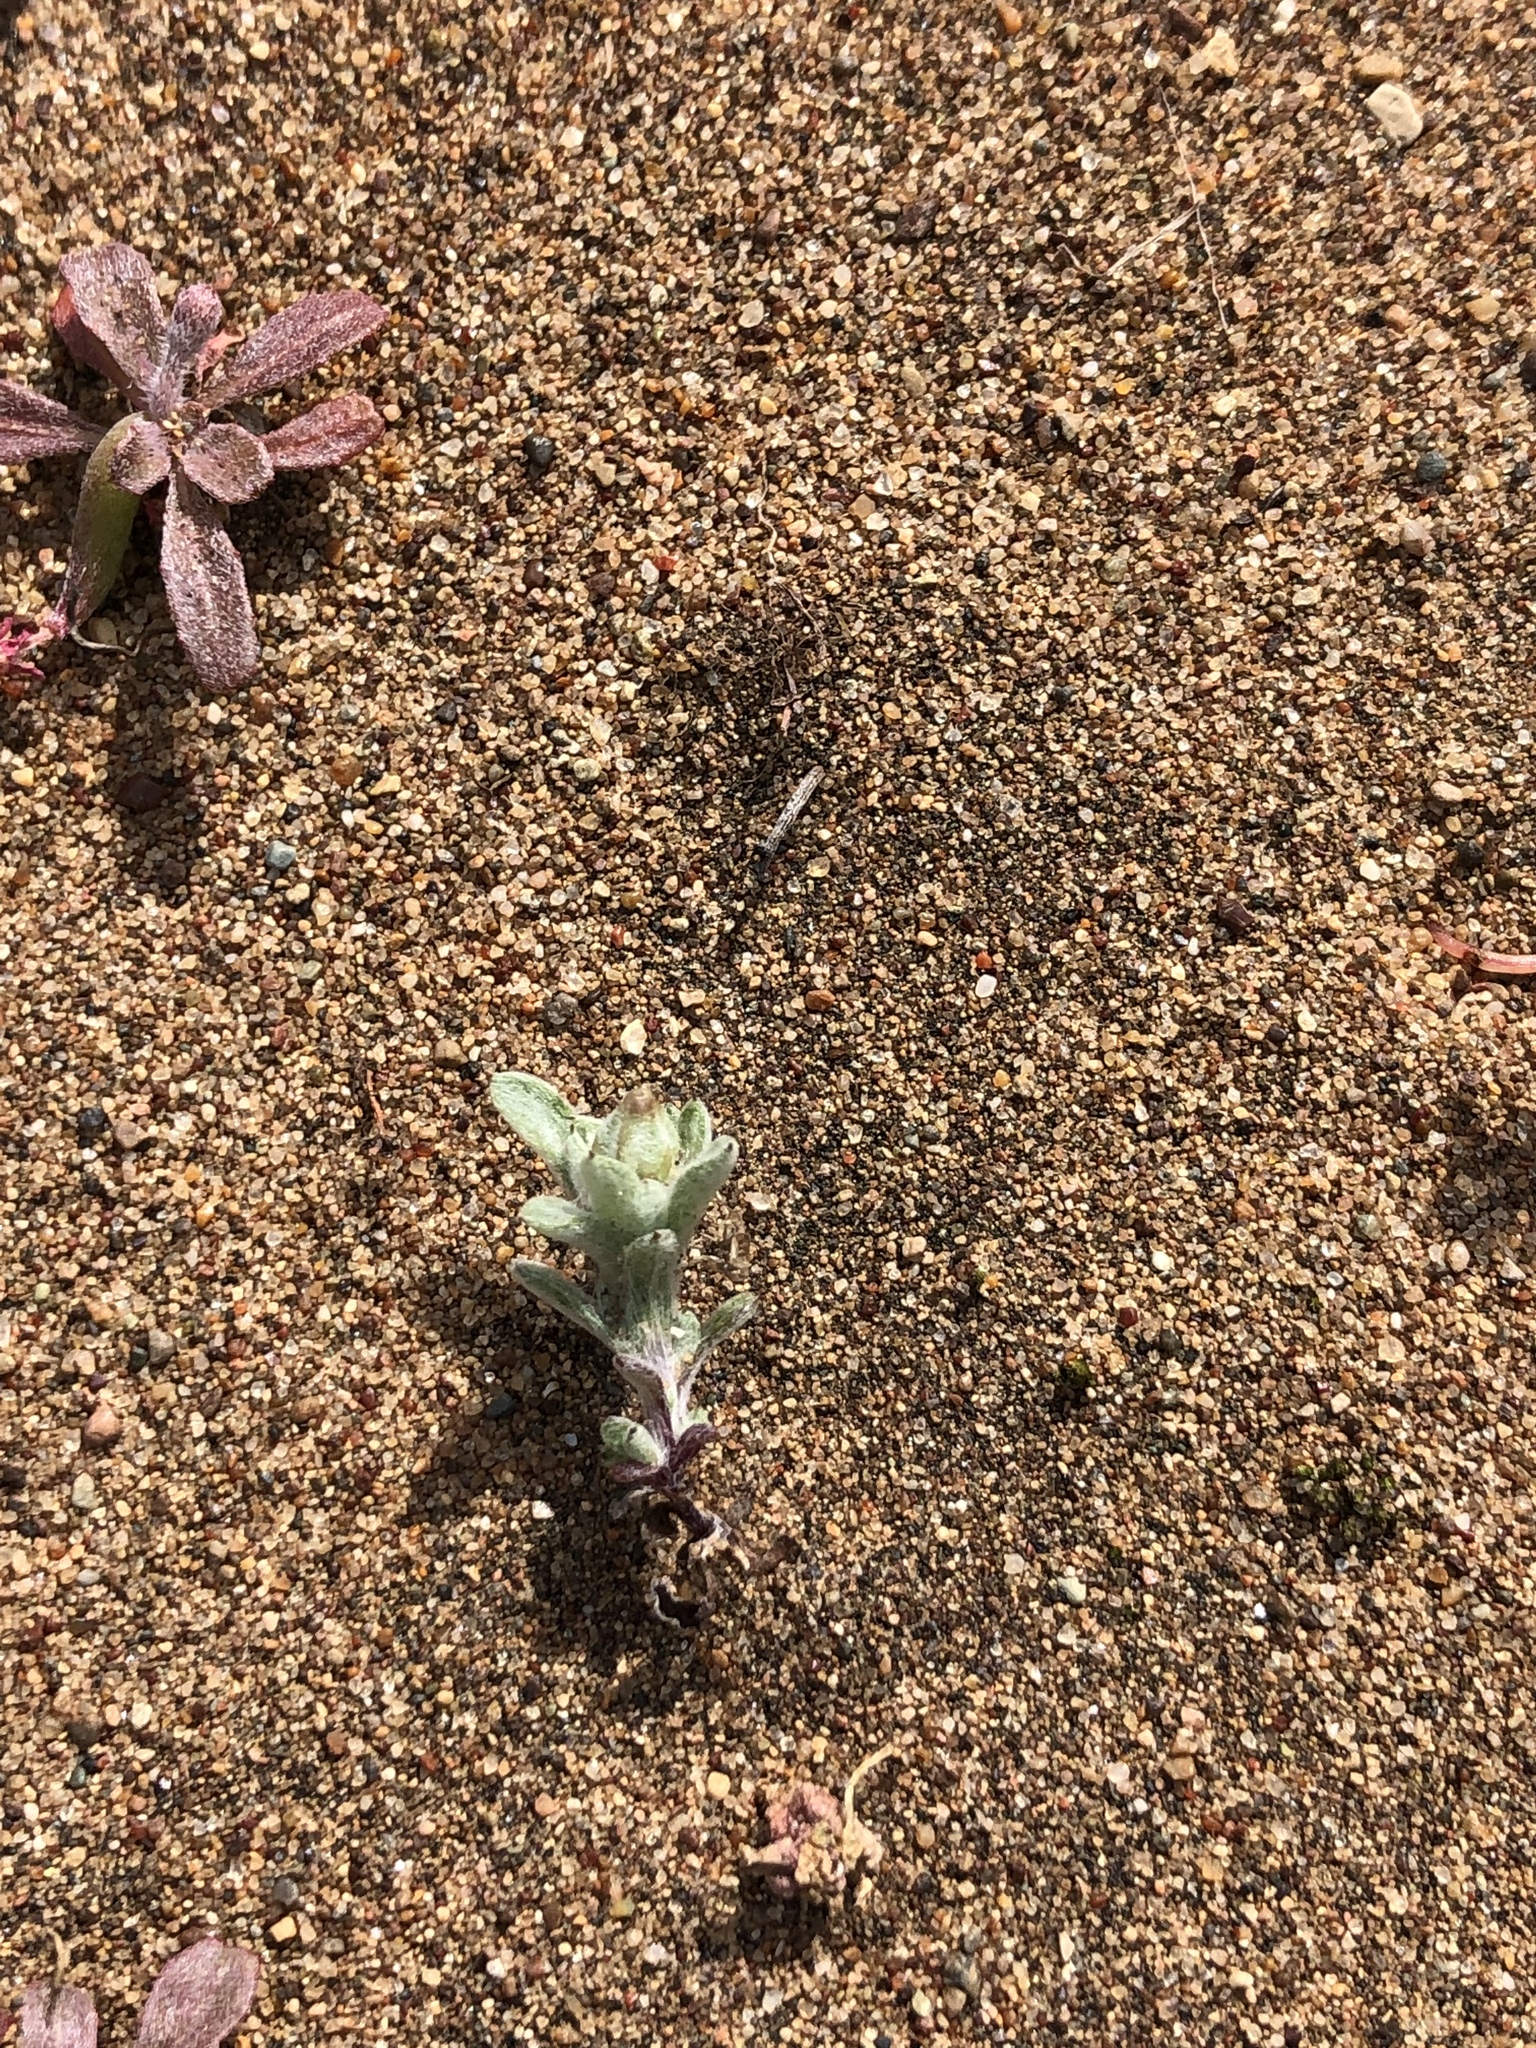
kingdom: Plantae
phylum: Tracheophyta
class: Magnoliopsida
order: Asterales
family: Asteraceae
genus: Logfia
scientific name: Logfia californica
